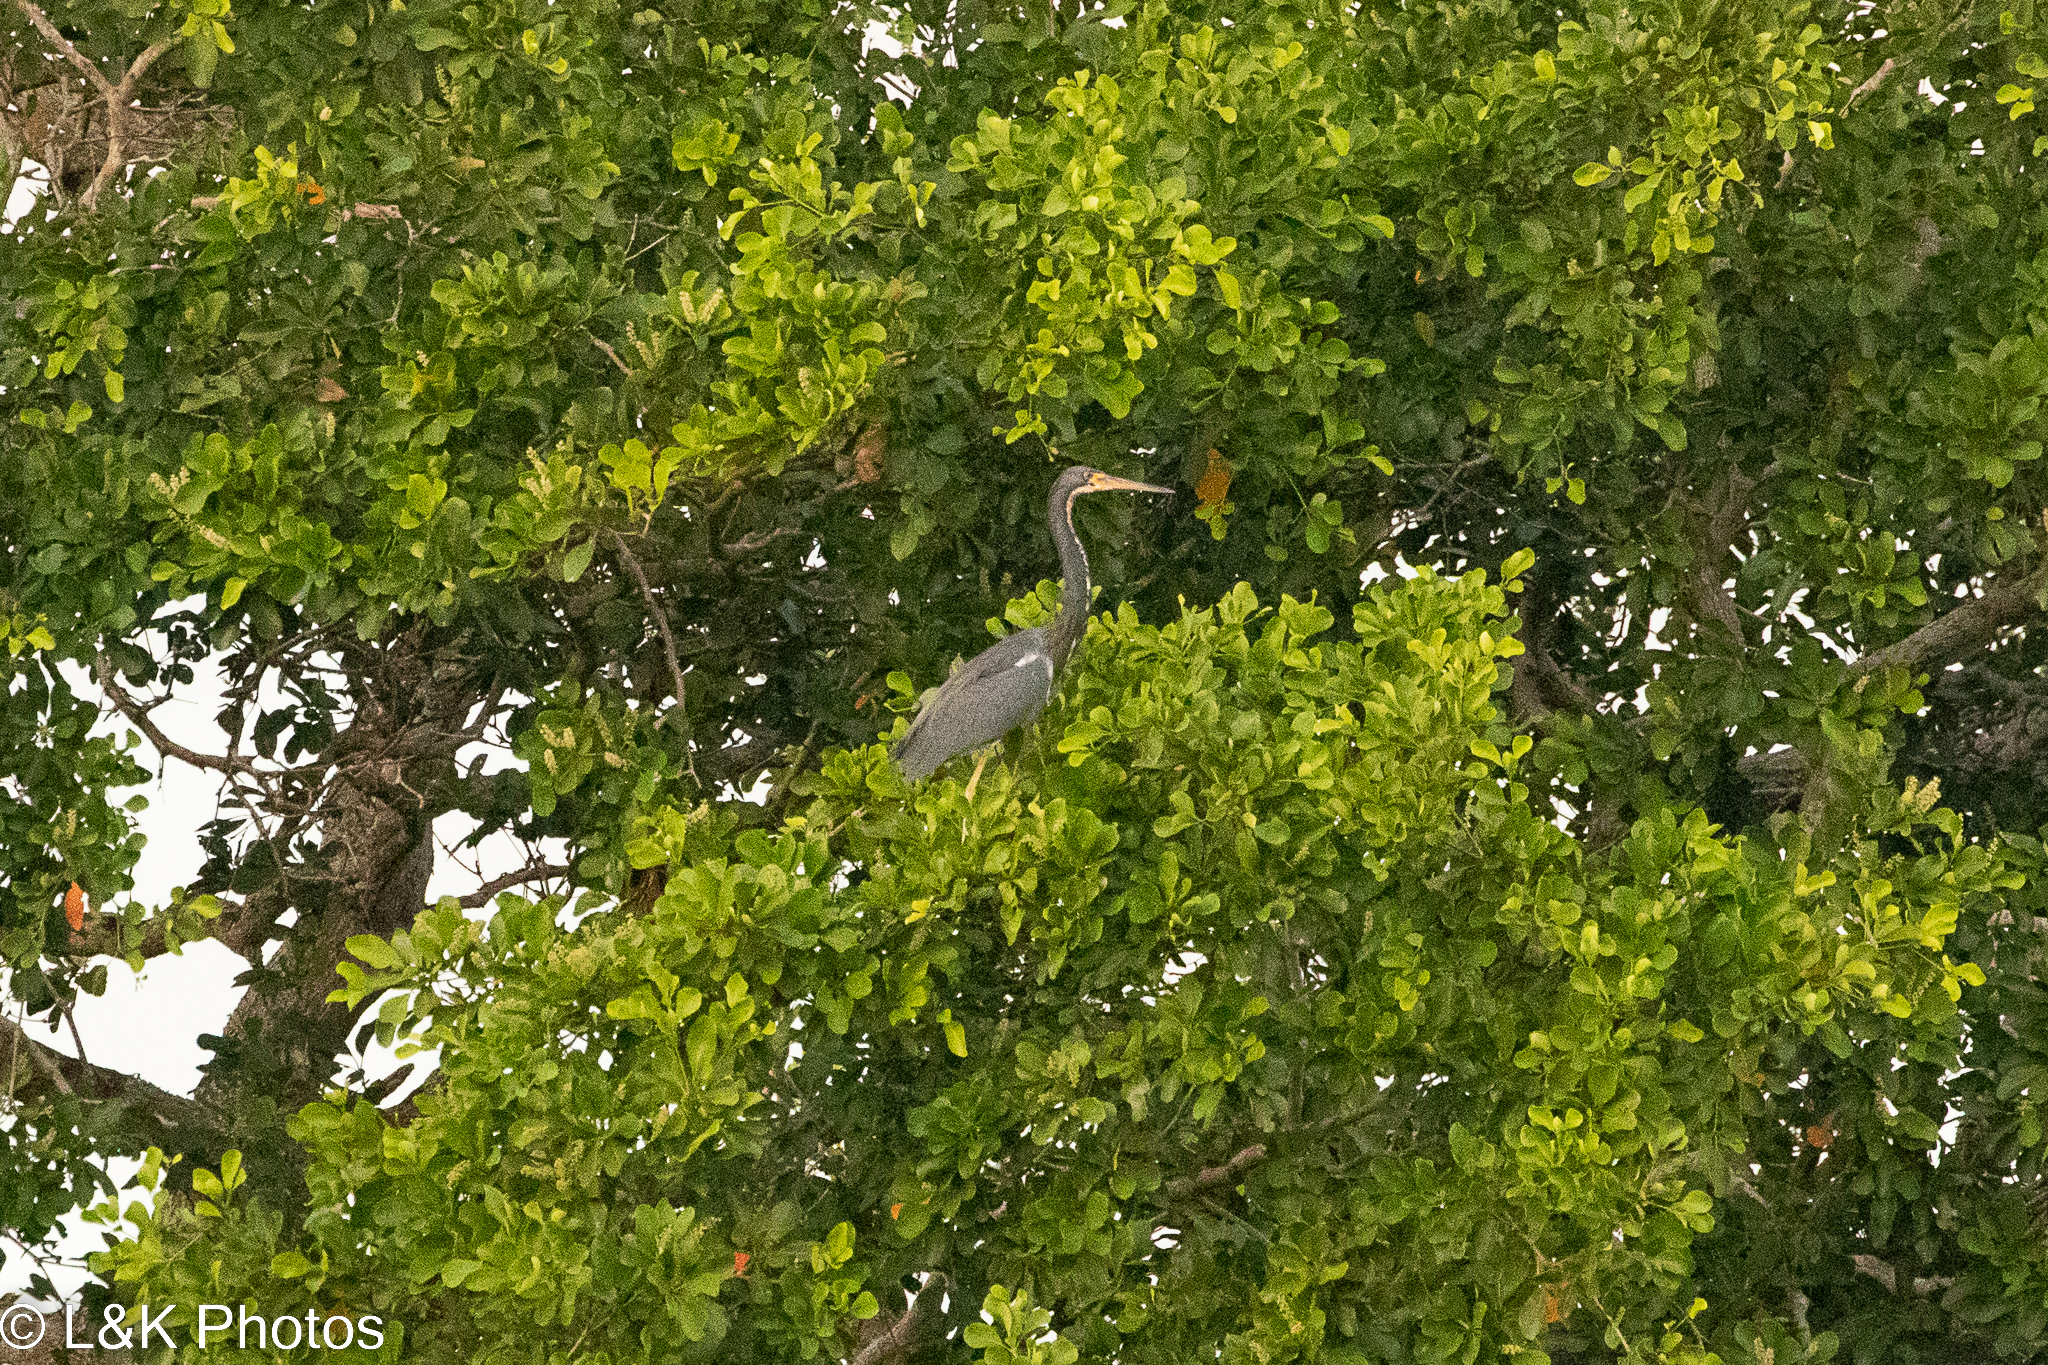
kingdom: Animalia
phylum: Chordata
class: Aves
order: Pelecaniformes
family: Ardeidae
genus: Egretta
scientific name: Egretta tricolor
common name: Tricolored heron
